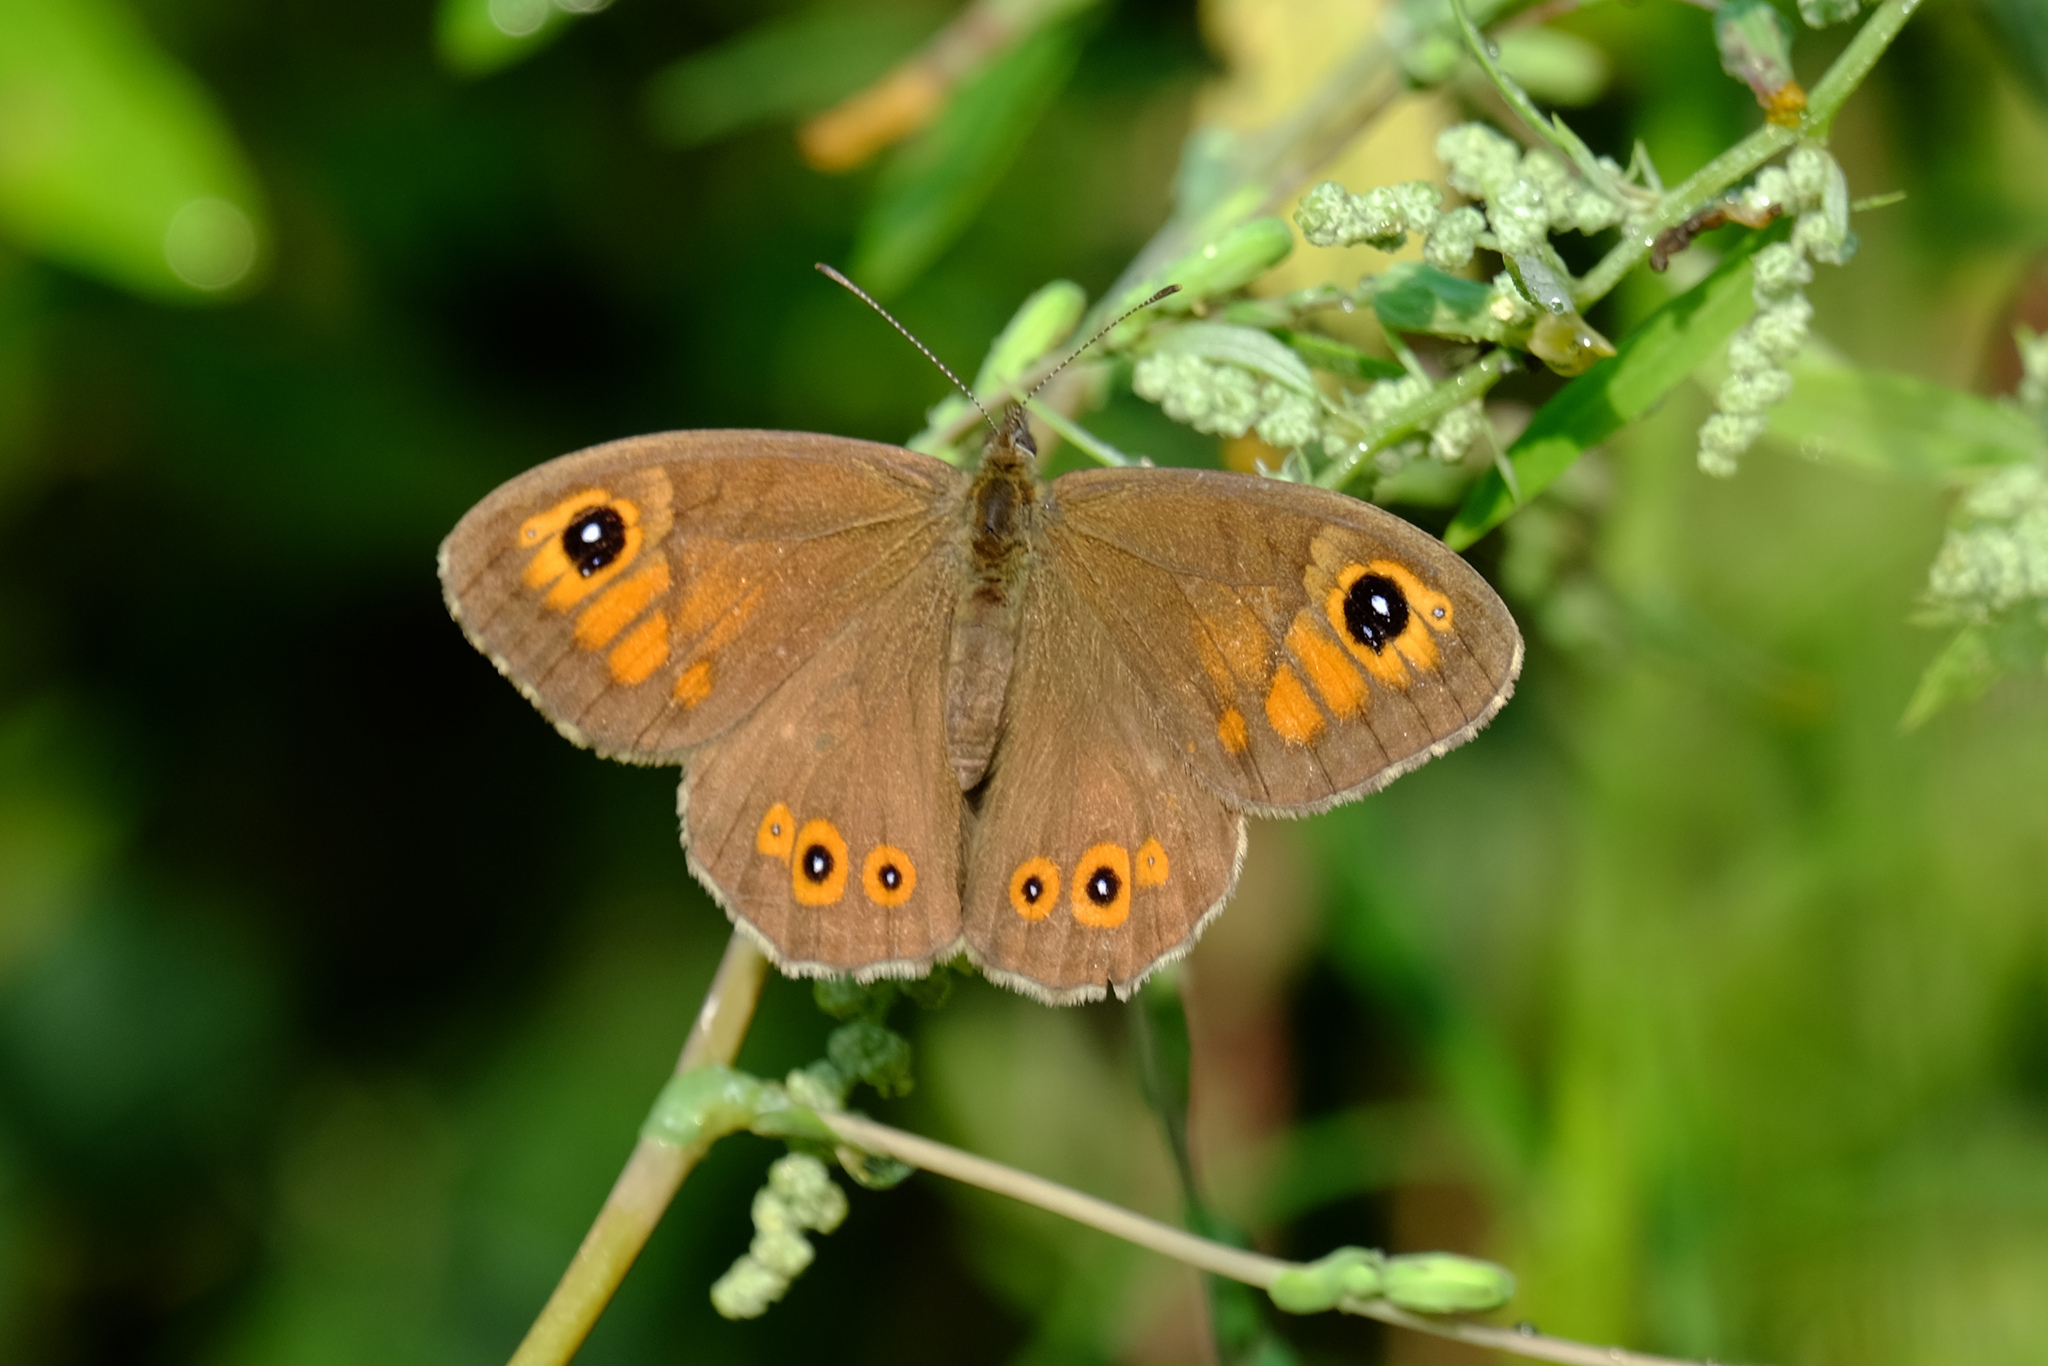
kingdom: Animalia
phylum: Arthropoda
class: Insecta
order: Lepidoptera
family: Nymphalidae
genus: Pararge
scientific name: Pararge Lasiommata maera
